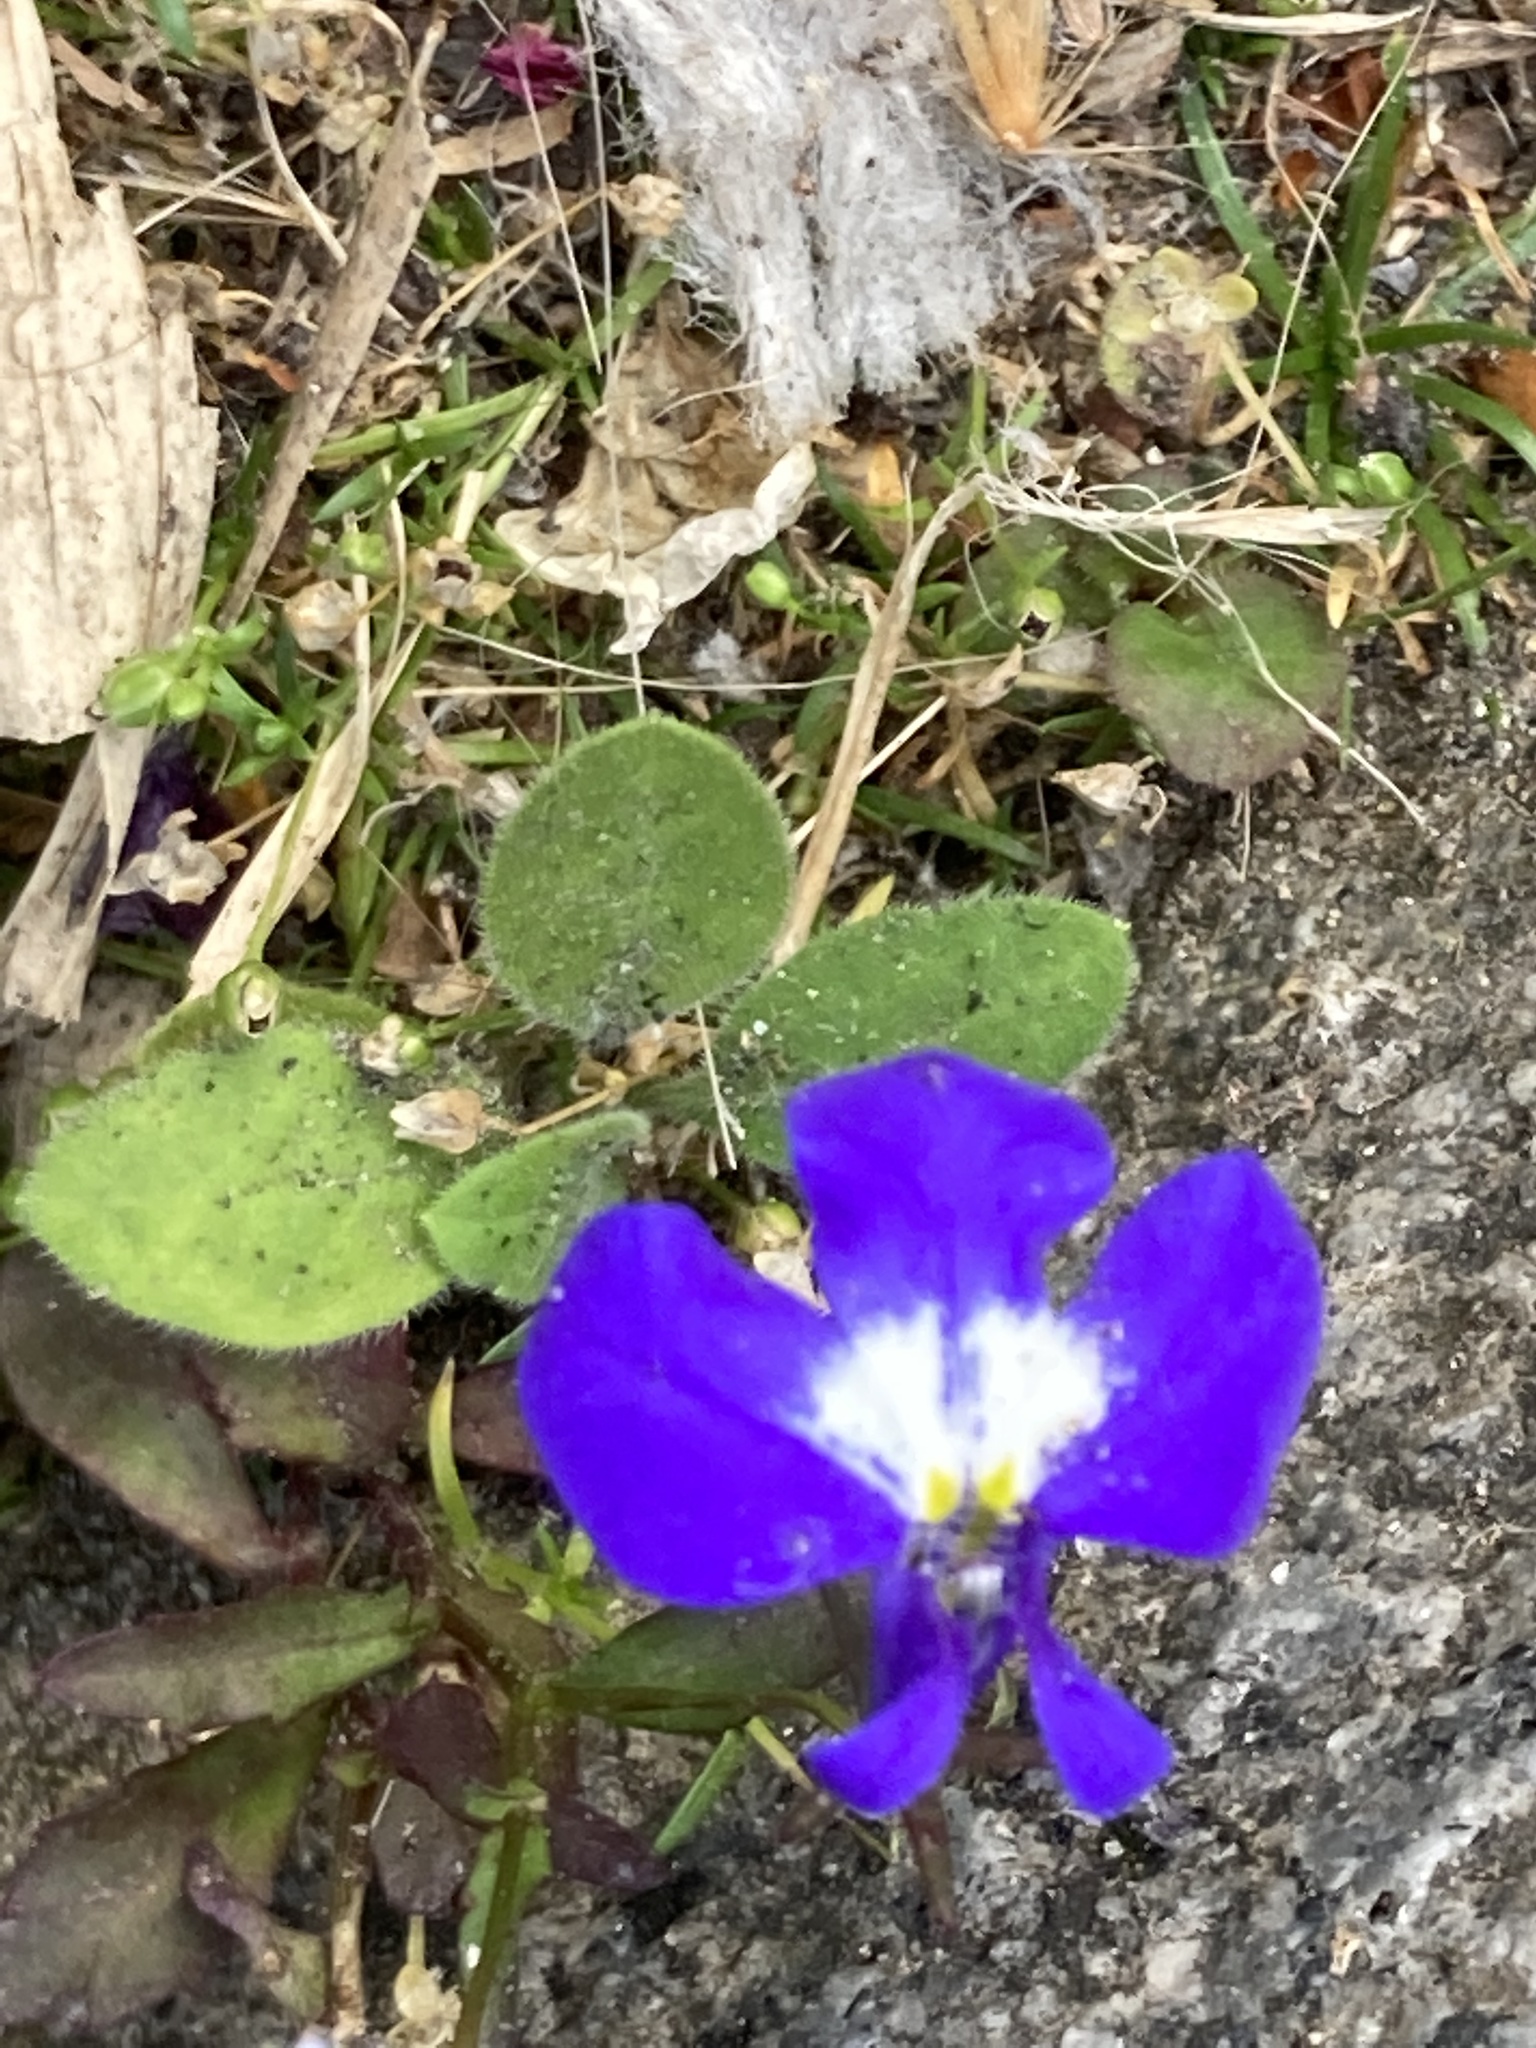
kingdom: Plantae
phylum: Tracheophyta
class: Magnoliopsida
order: Asterales
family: Campanulaceae
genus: Lobelia
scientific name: Lobelia erinus
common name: Edging lobelia
